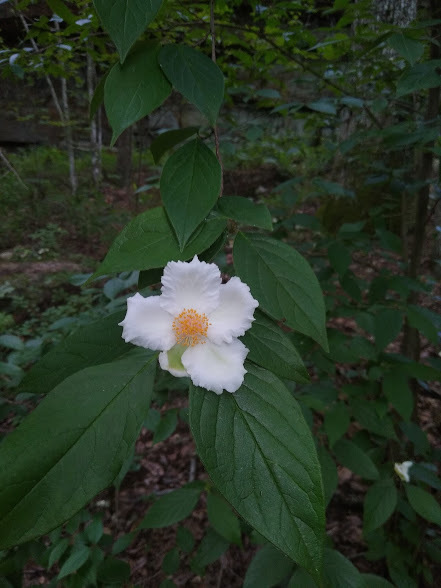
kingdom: Plantae
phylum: Tracheophyta
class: Magnoliopsida
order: Ericales
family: Theaceae
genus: Stewartia
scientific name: Stewartia ovata
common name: Mountain camellia
